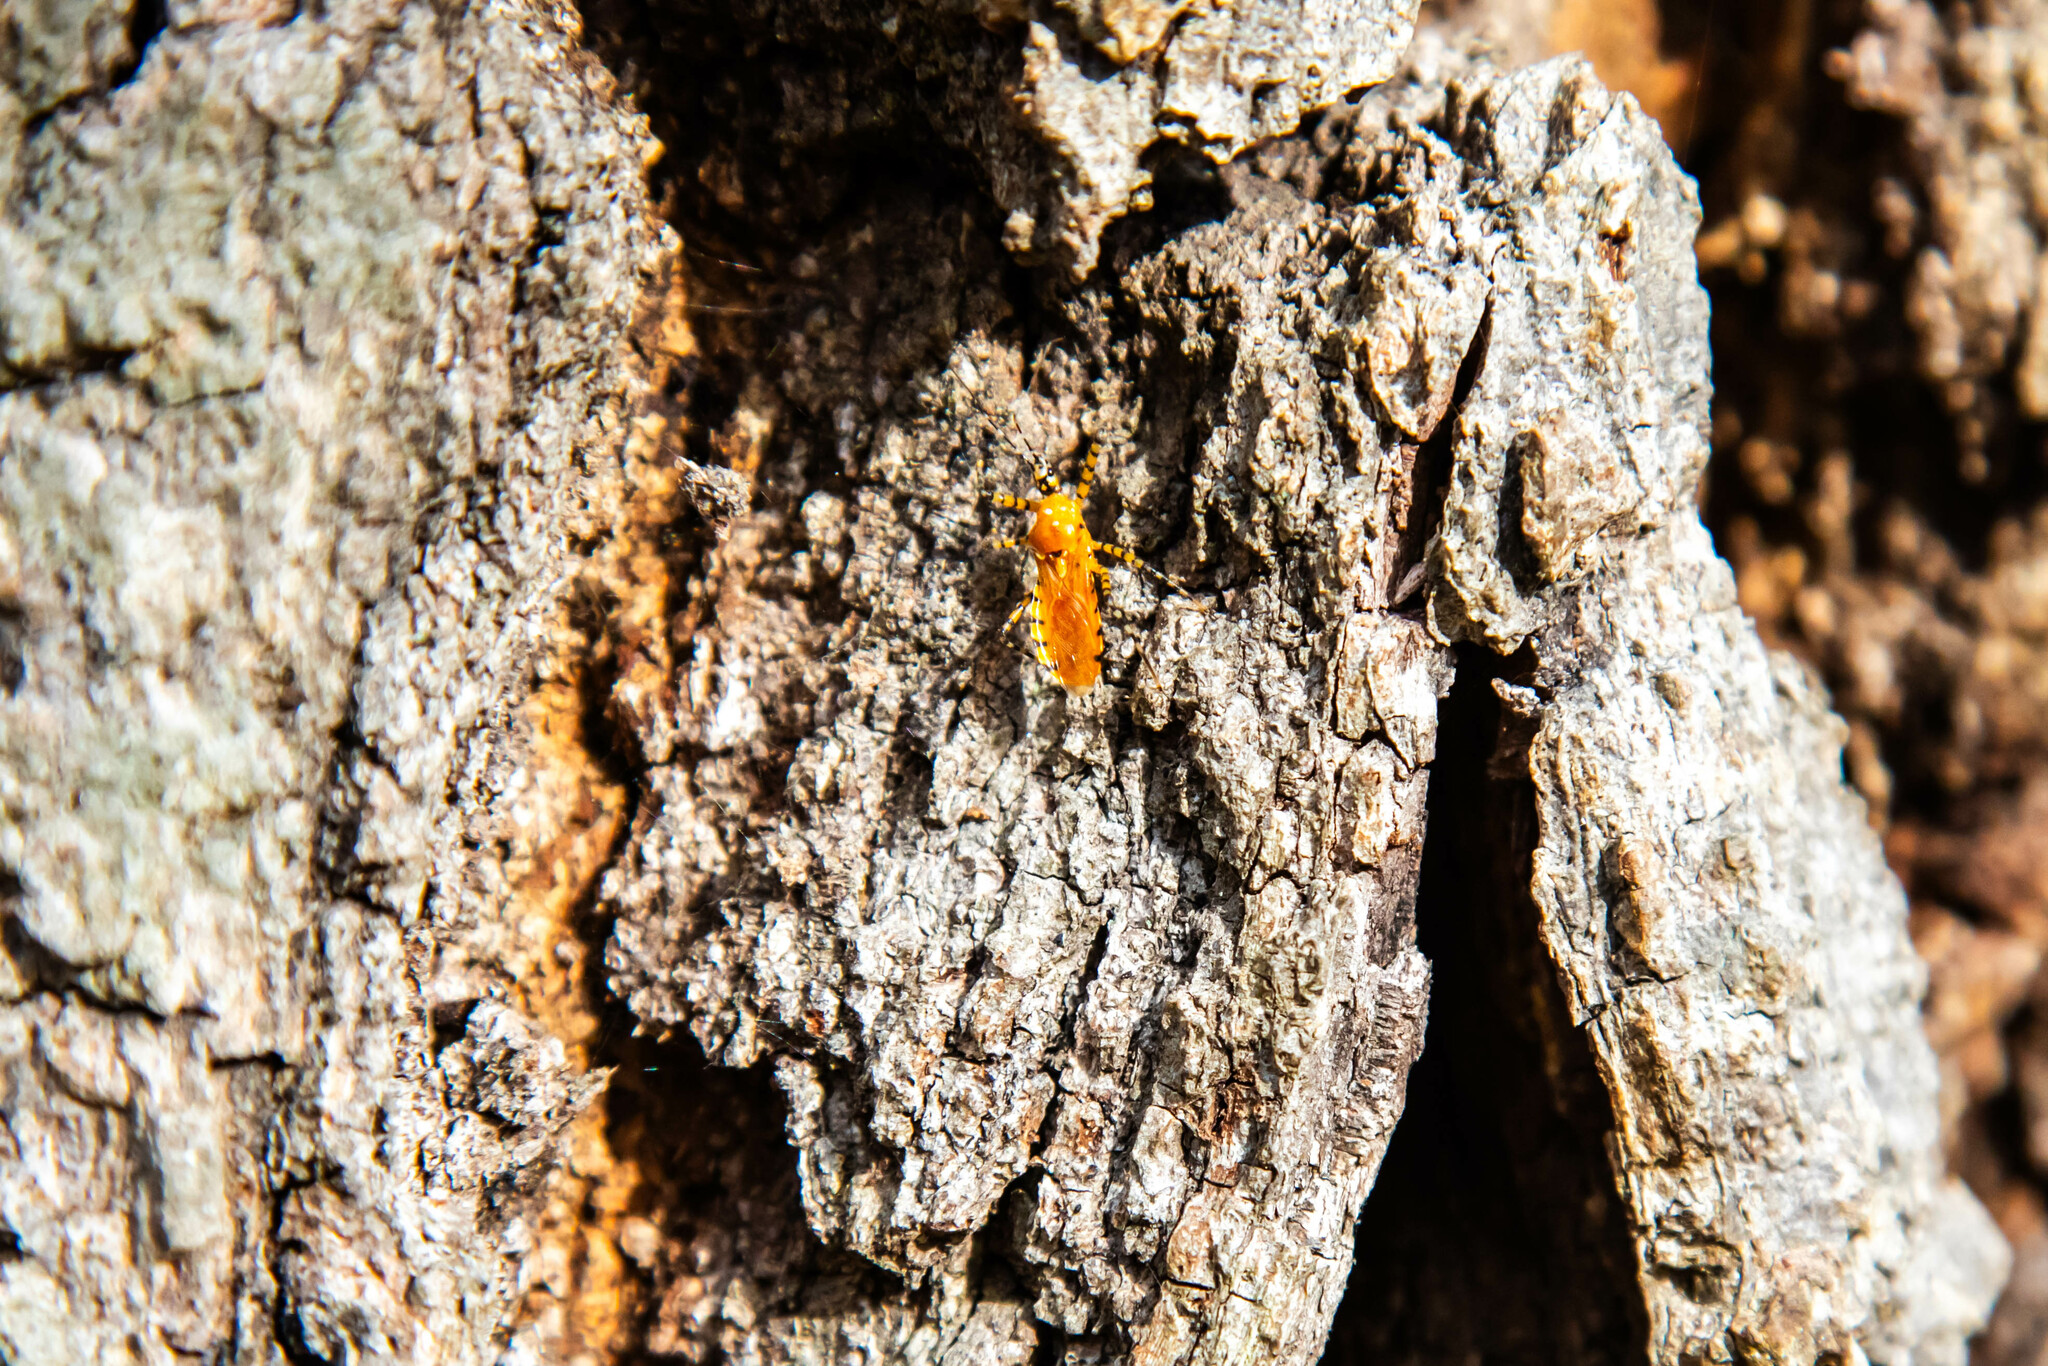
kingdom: Animalia
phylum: Arthropoda
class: Insecta
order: Hemiptera
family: Reduviidae
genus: Pselliopus
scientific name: Pselliopus barberi
